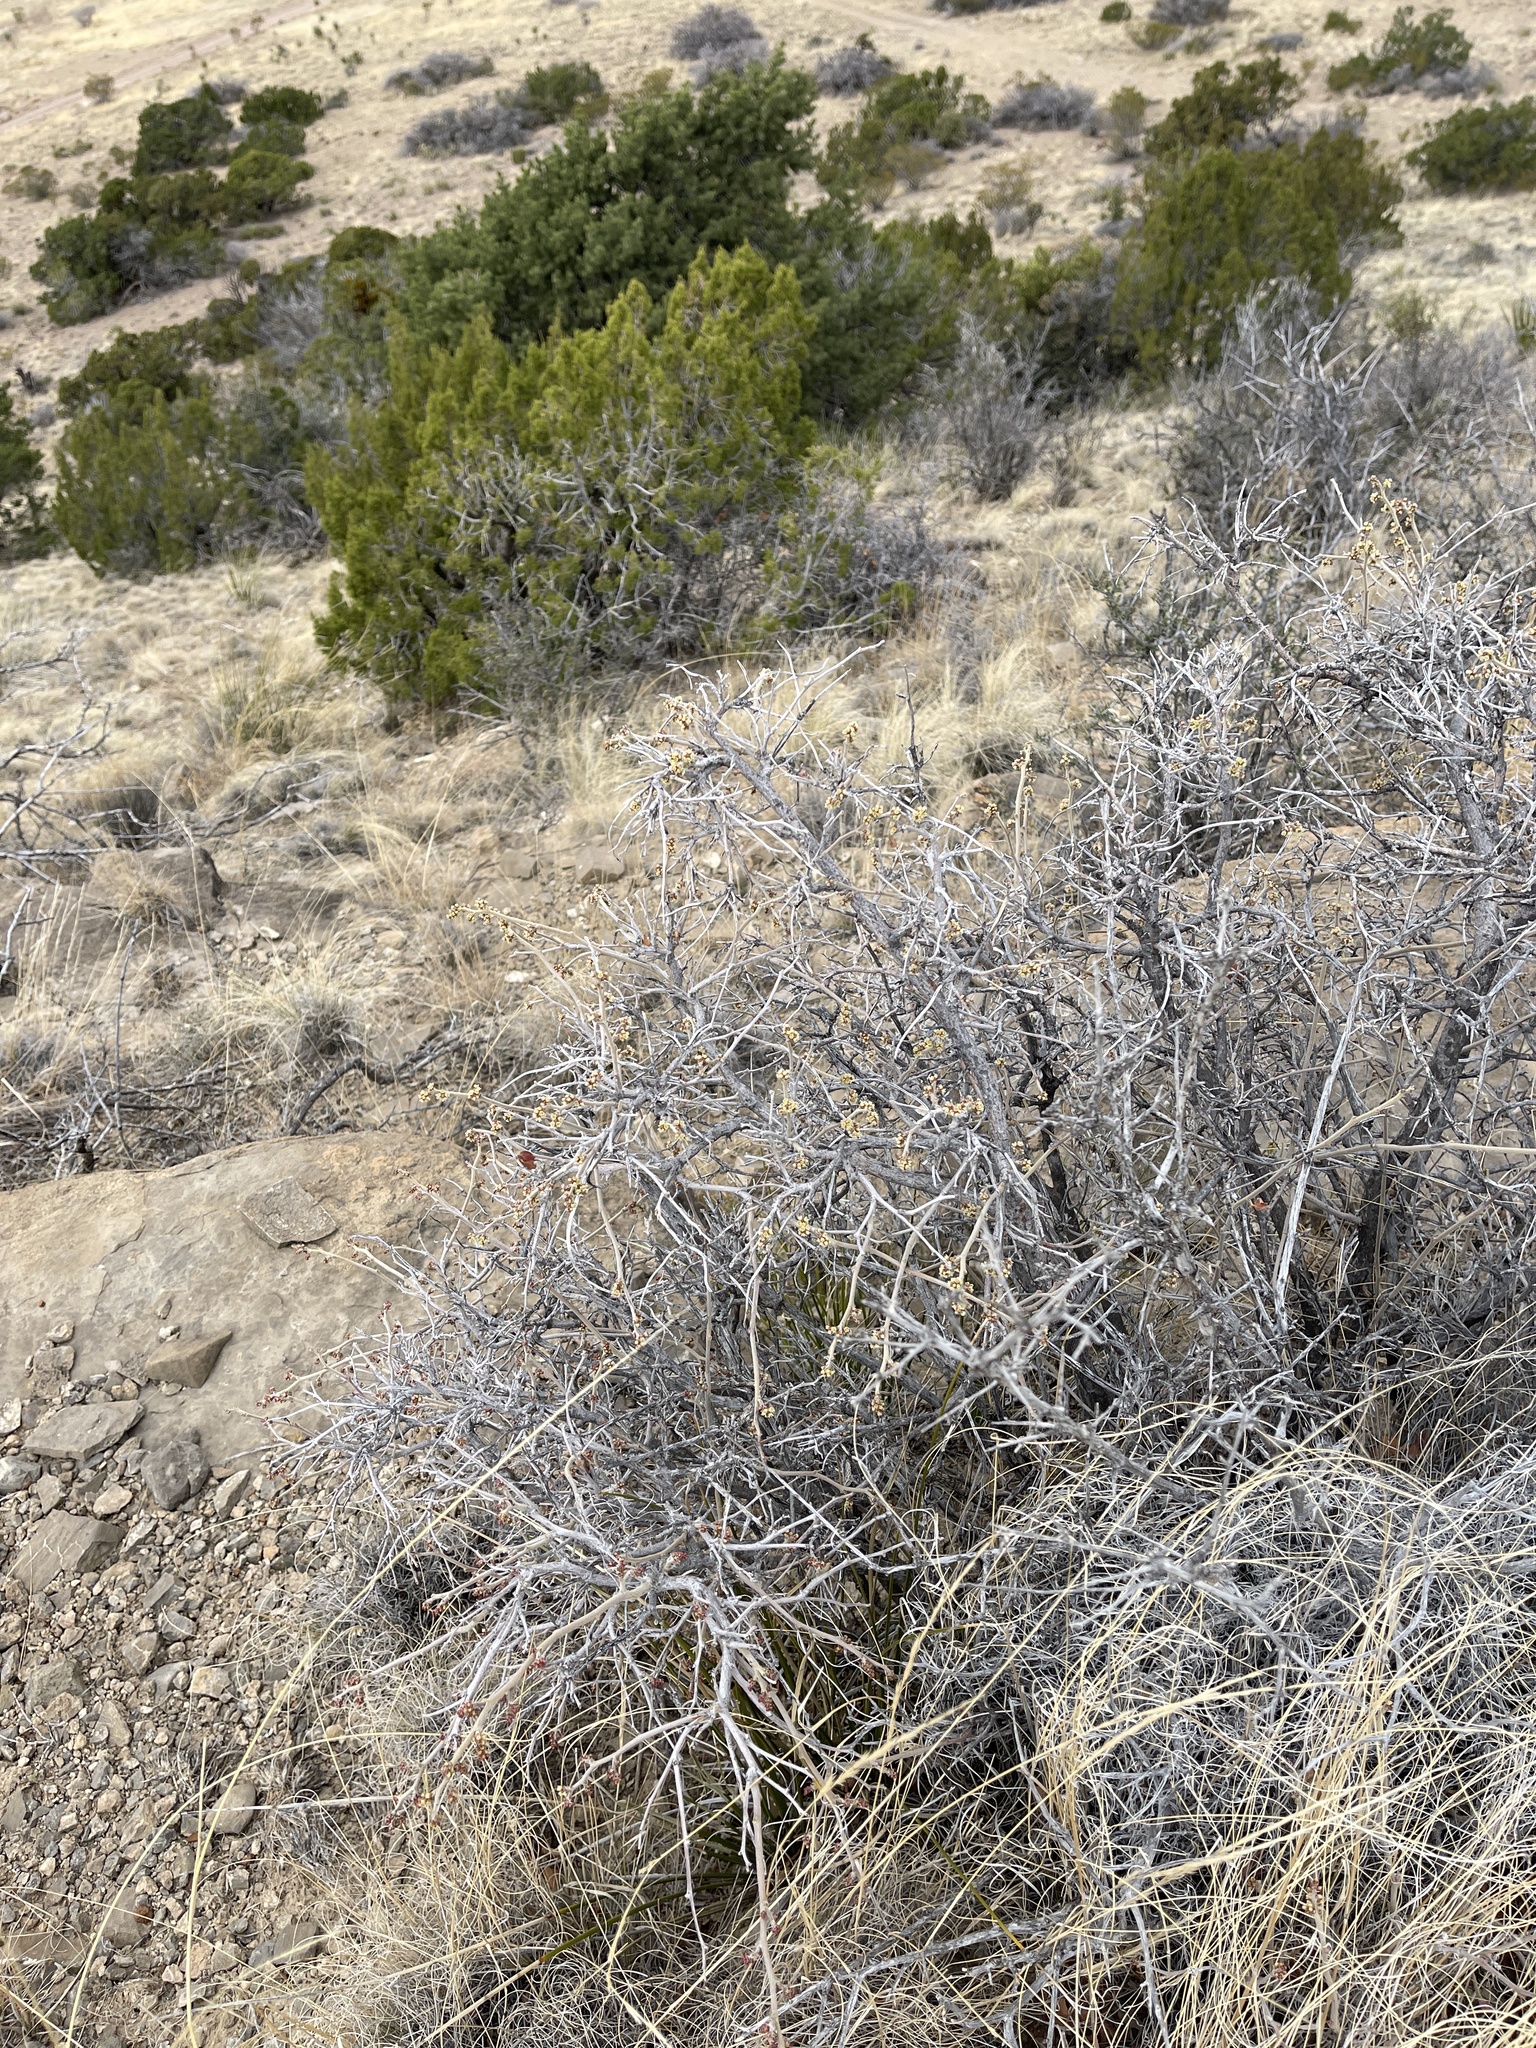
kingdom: Plantae
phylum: Tracheophyta
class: Magnoliopsida
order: Sapindales
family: Anacardiaceae
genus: Rhus
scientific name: Rhus microphylla
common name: Desert sumac
